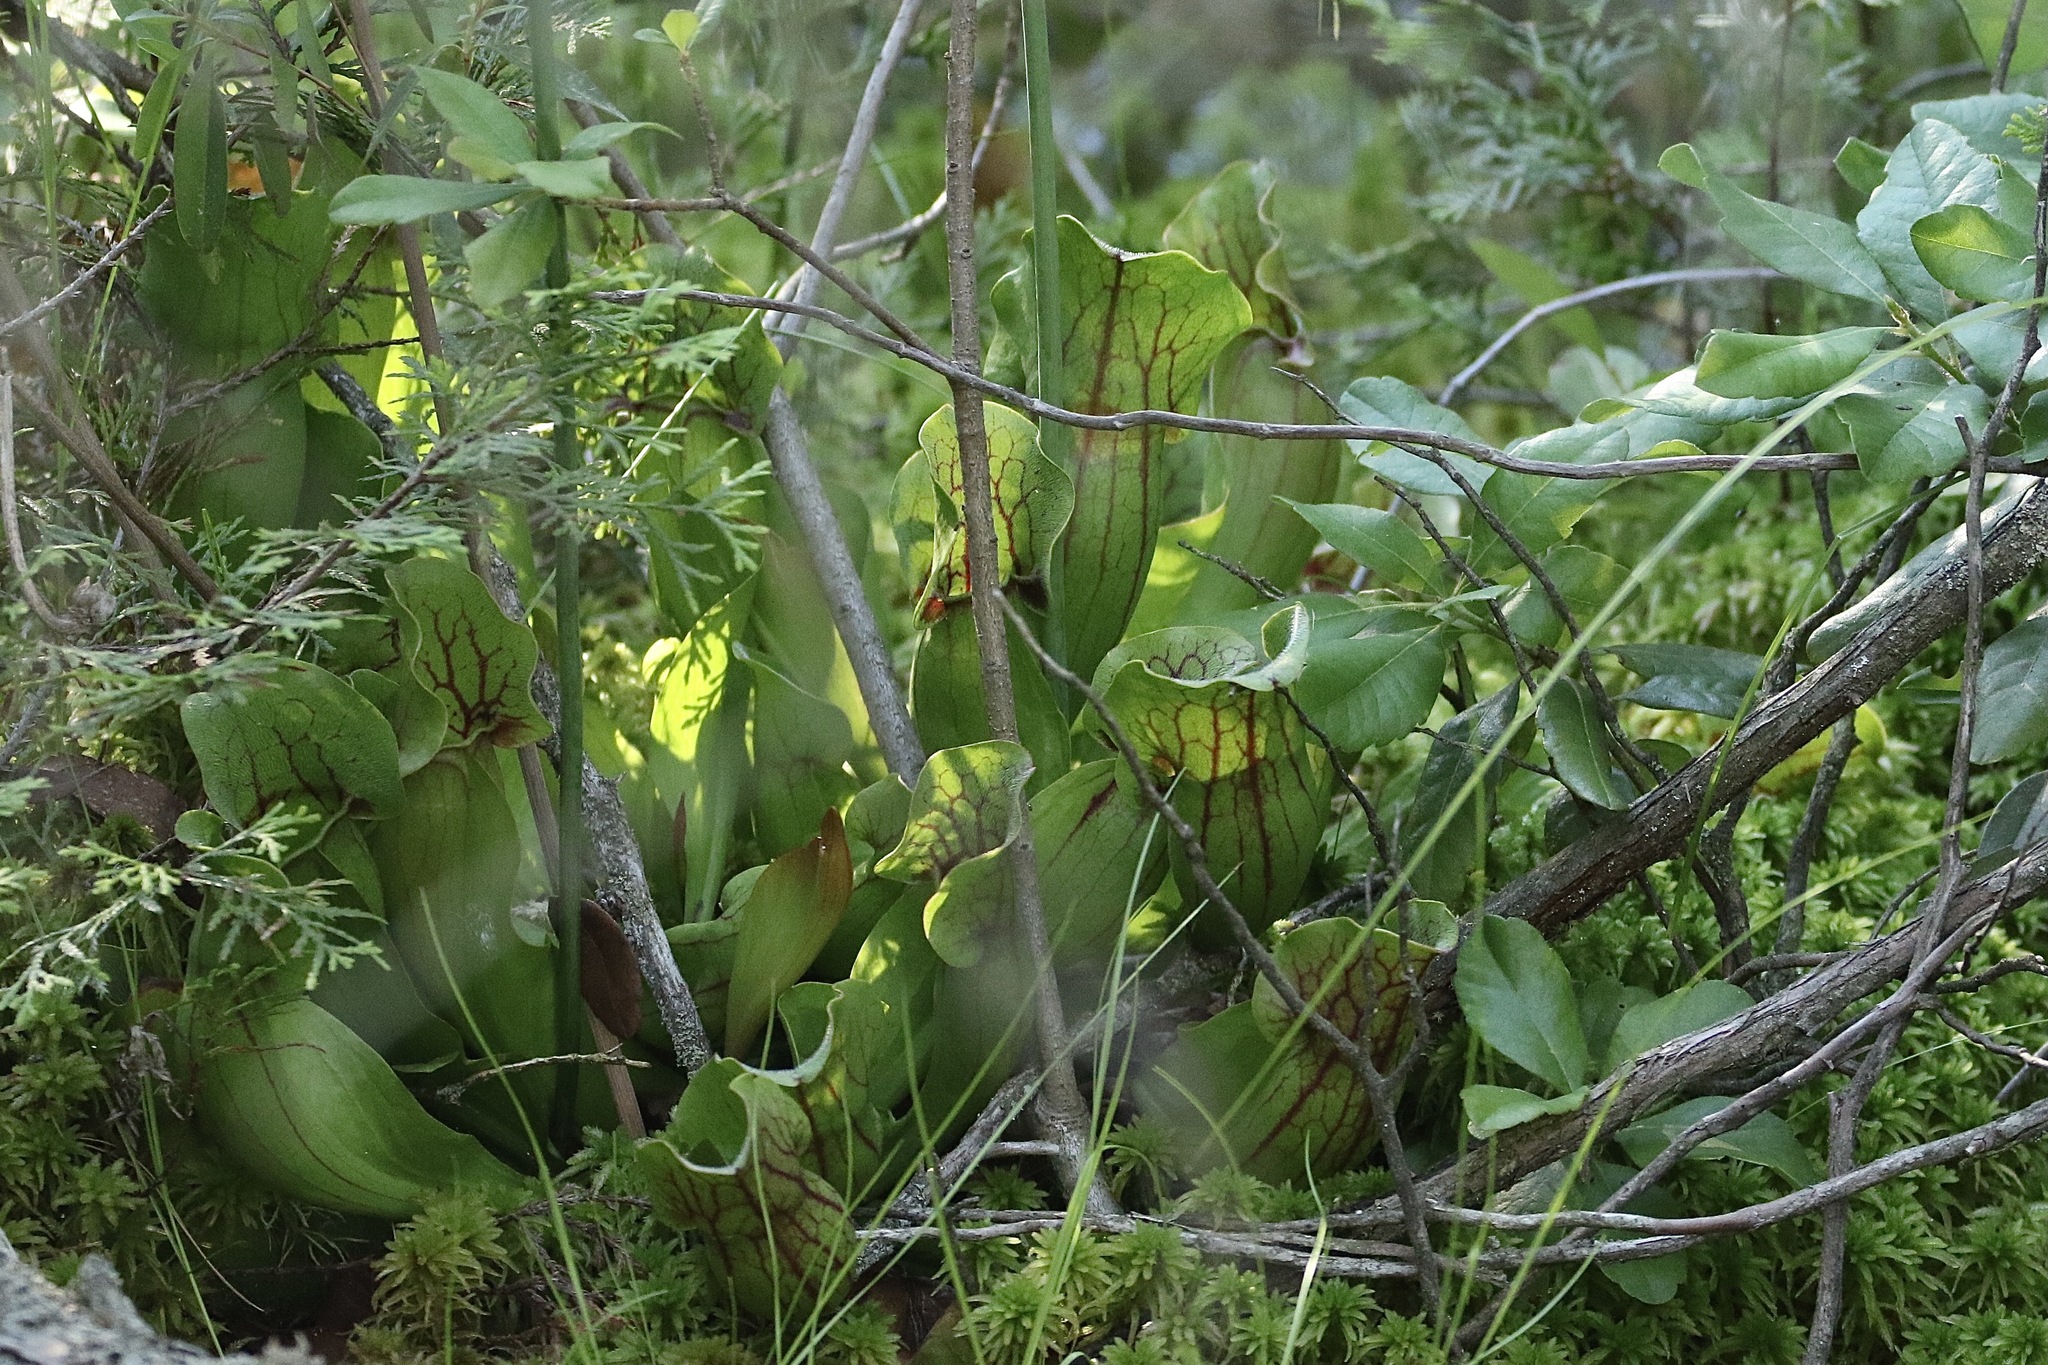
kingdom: Plantae
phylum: Tracheophyta
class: Magnoliopsida
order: Ericales
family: Sarraceniaceae
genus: Sarracenia
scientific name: Sarracenia purpurea
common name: Pitcherplant
